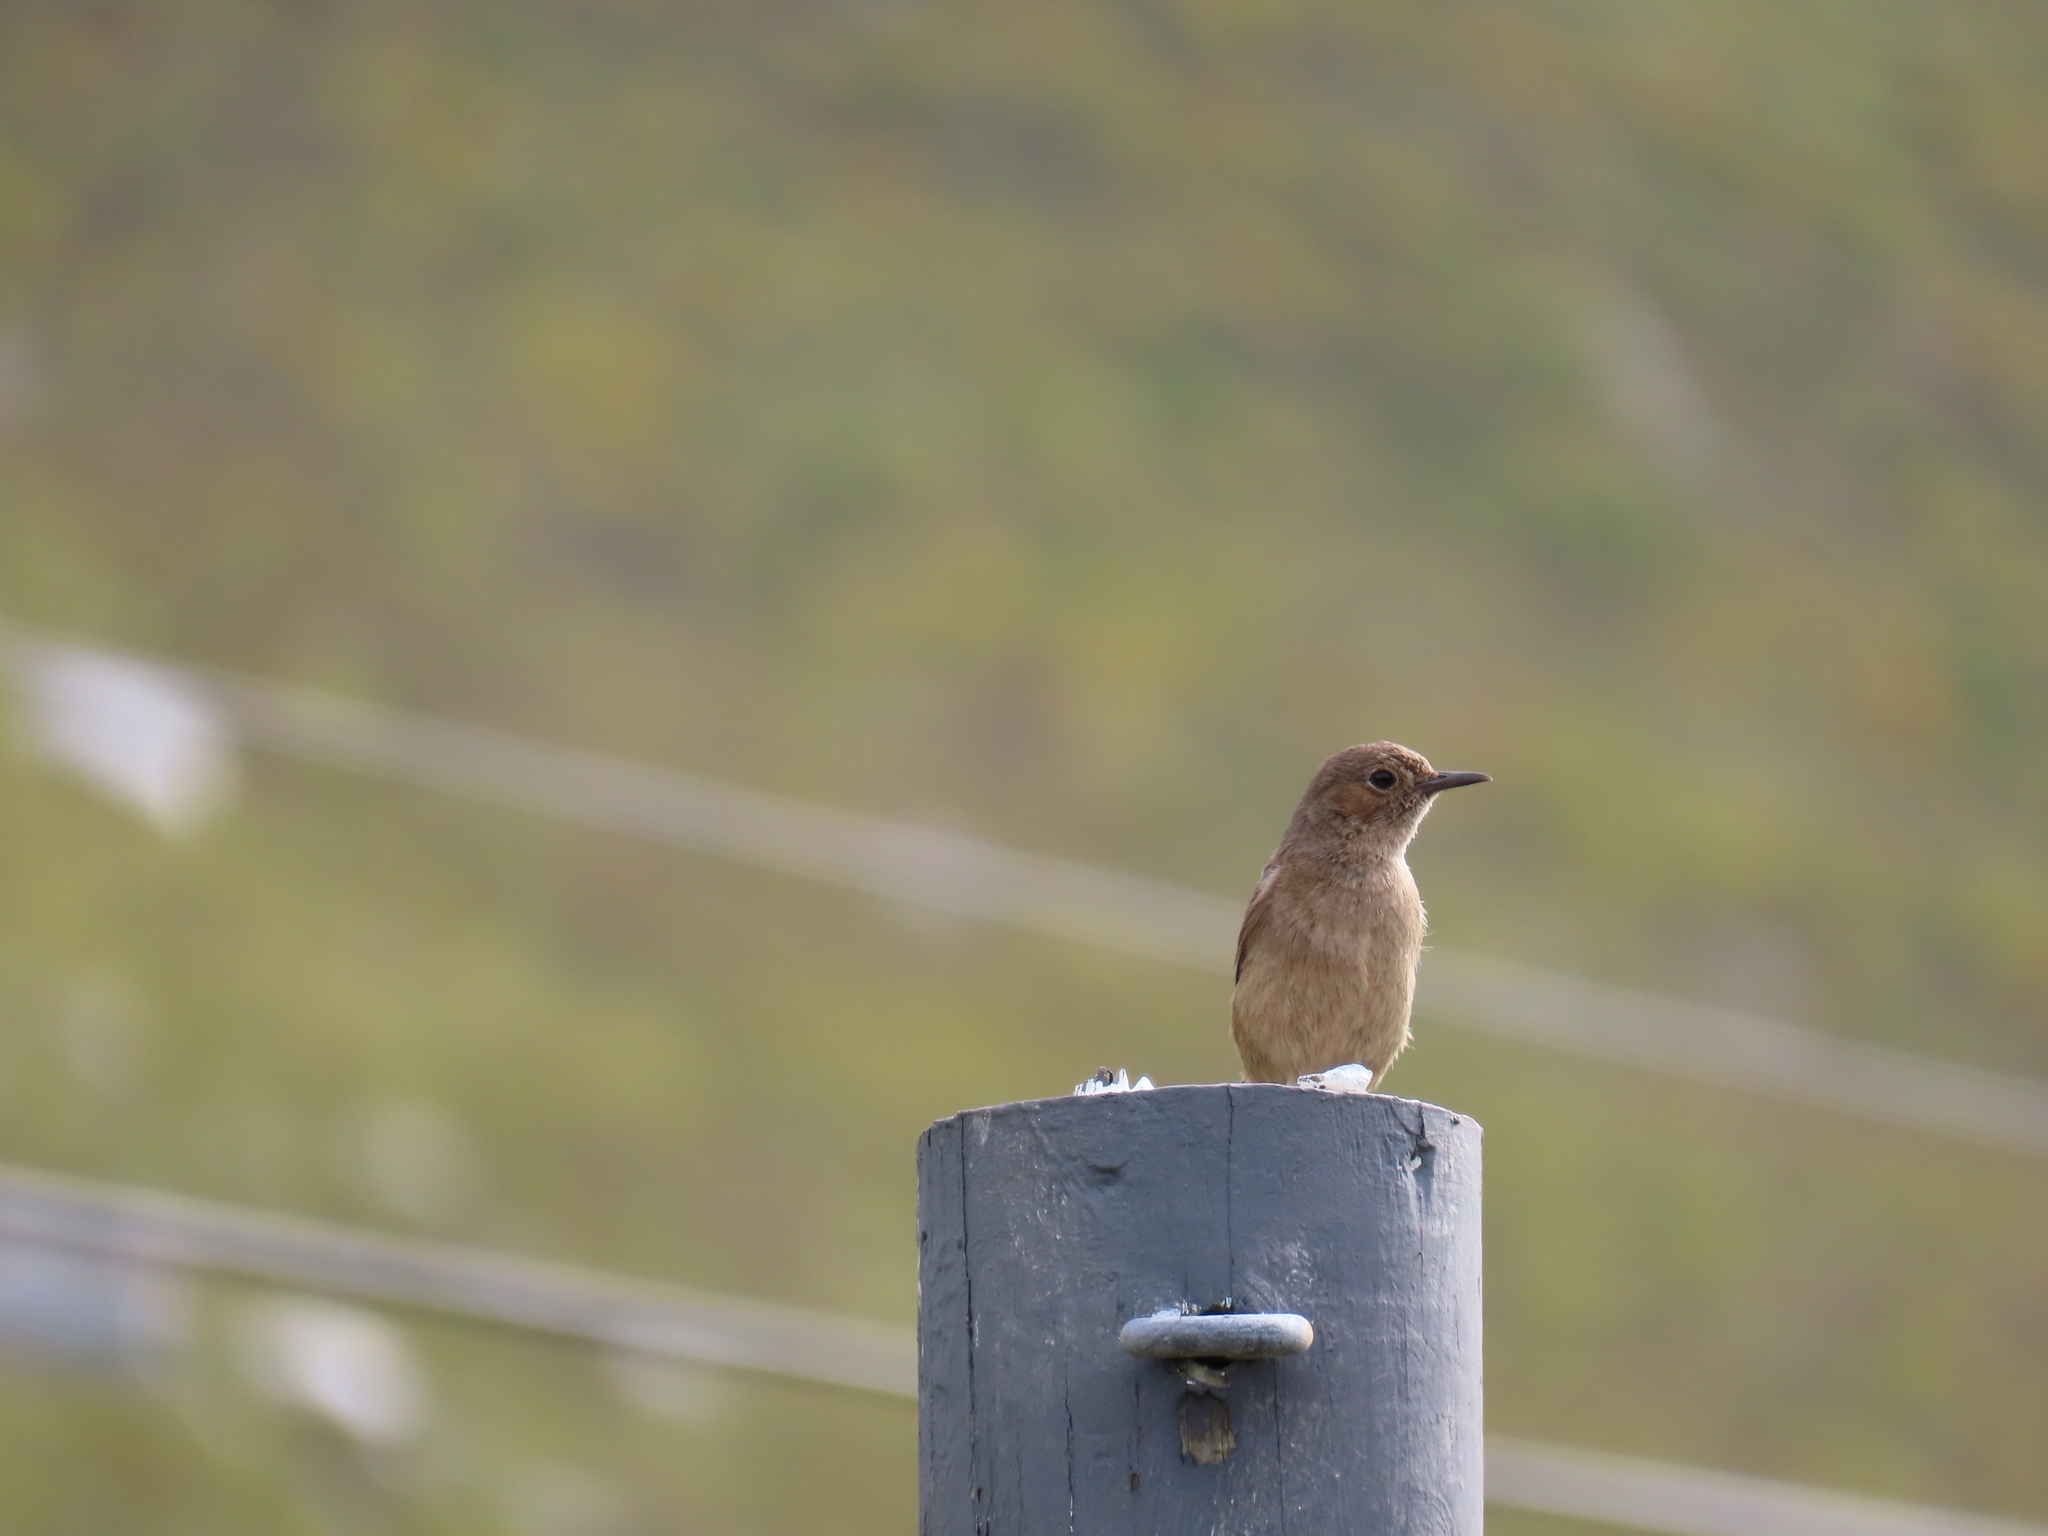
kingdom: Animalia
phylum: Chordata
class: Aves
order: Passeriformes
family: Muscicapidae
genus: Oenanthe
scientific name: Oenanthe familiaris
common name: Familiar chat
